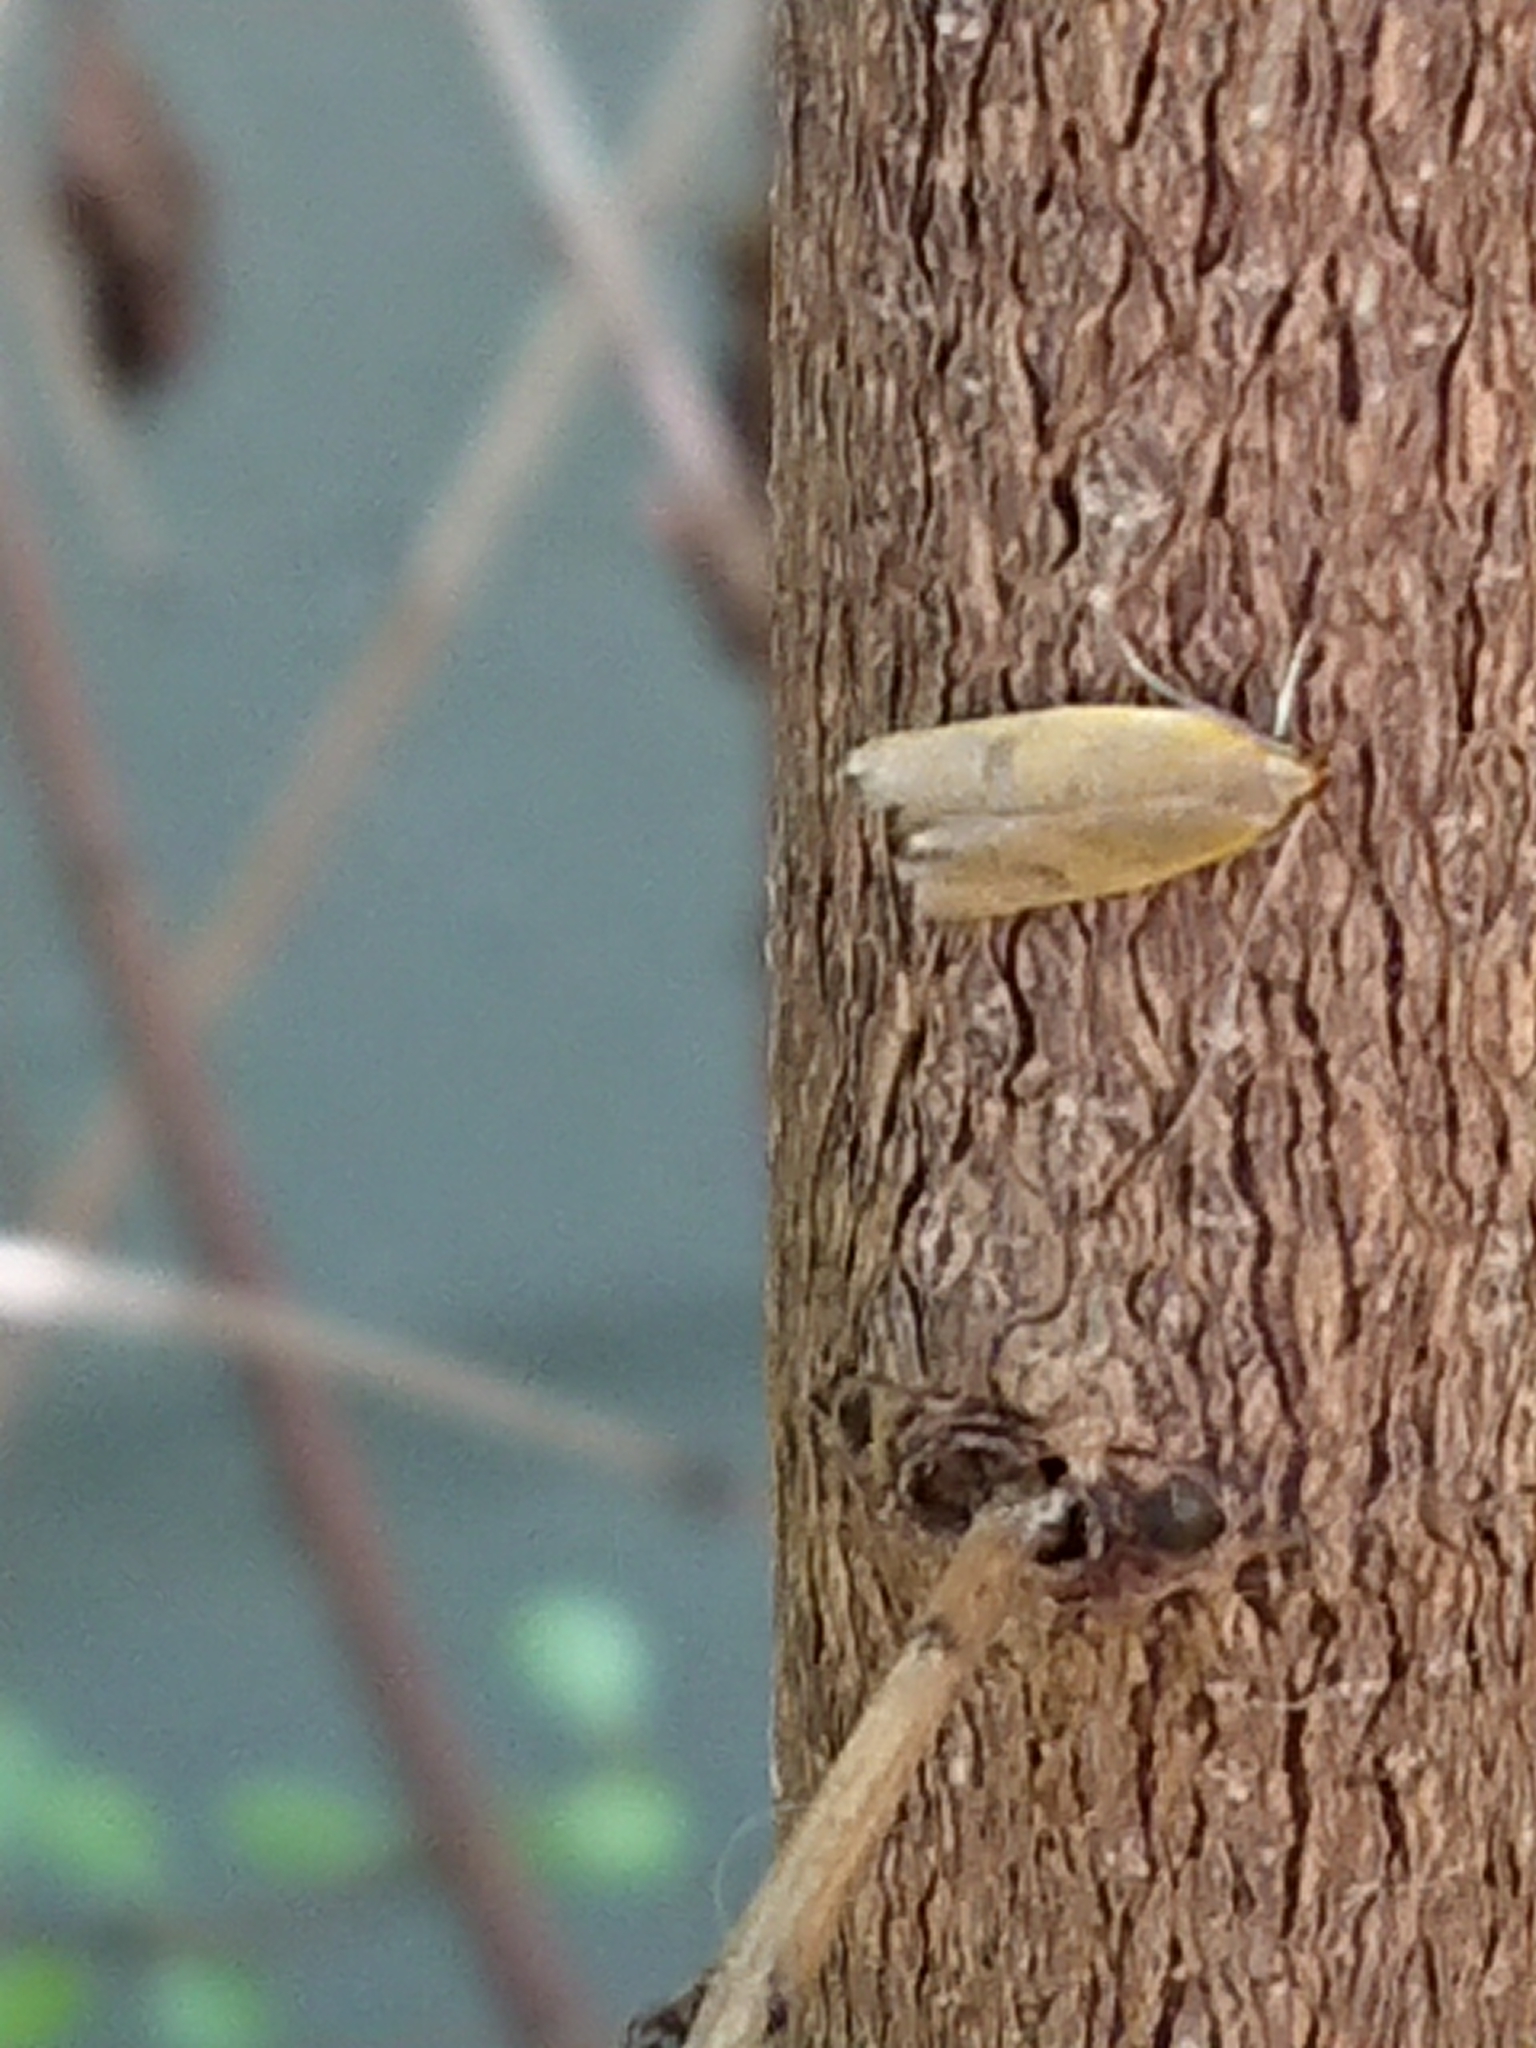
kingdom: Animalia
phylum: Arthropoda
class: Insecta
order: Lepidoptera
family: Oecophoridae
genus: Gymnobathra
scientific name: Gymnobathra sarcoxantha
